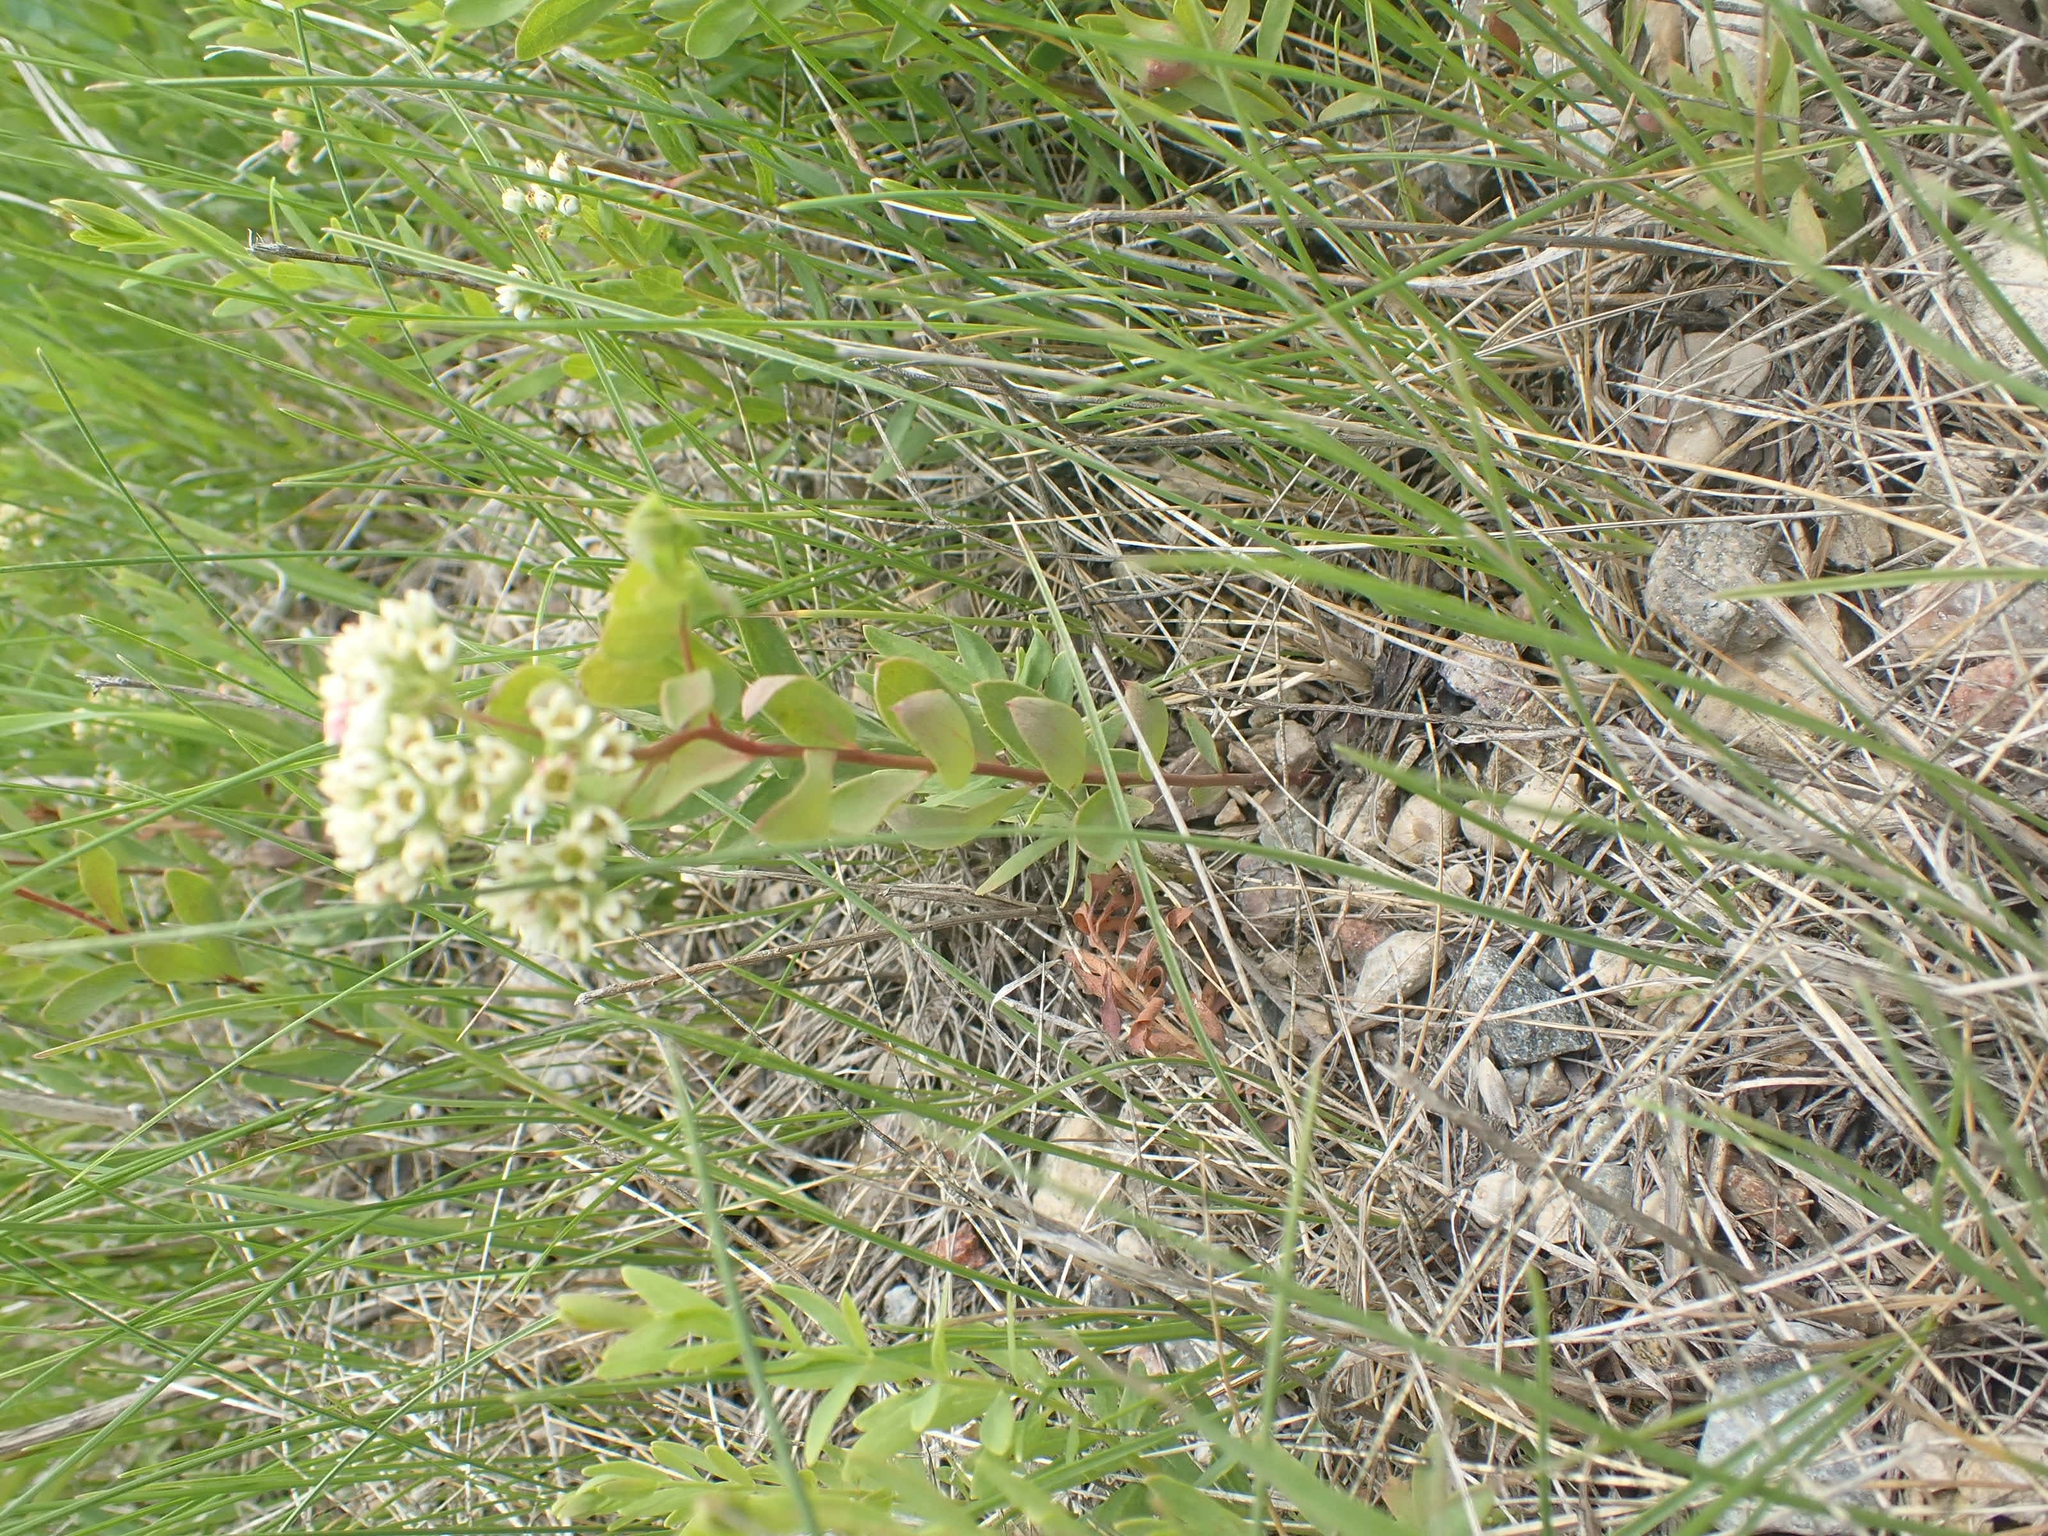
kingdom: Plantae
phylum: Tracheophyta
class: Magnoliopsida
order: Santalales
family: Comandraceae
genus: Comandra
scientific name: Comandra umbellata
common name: Bastard toadflax
